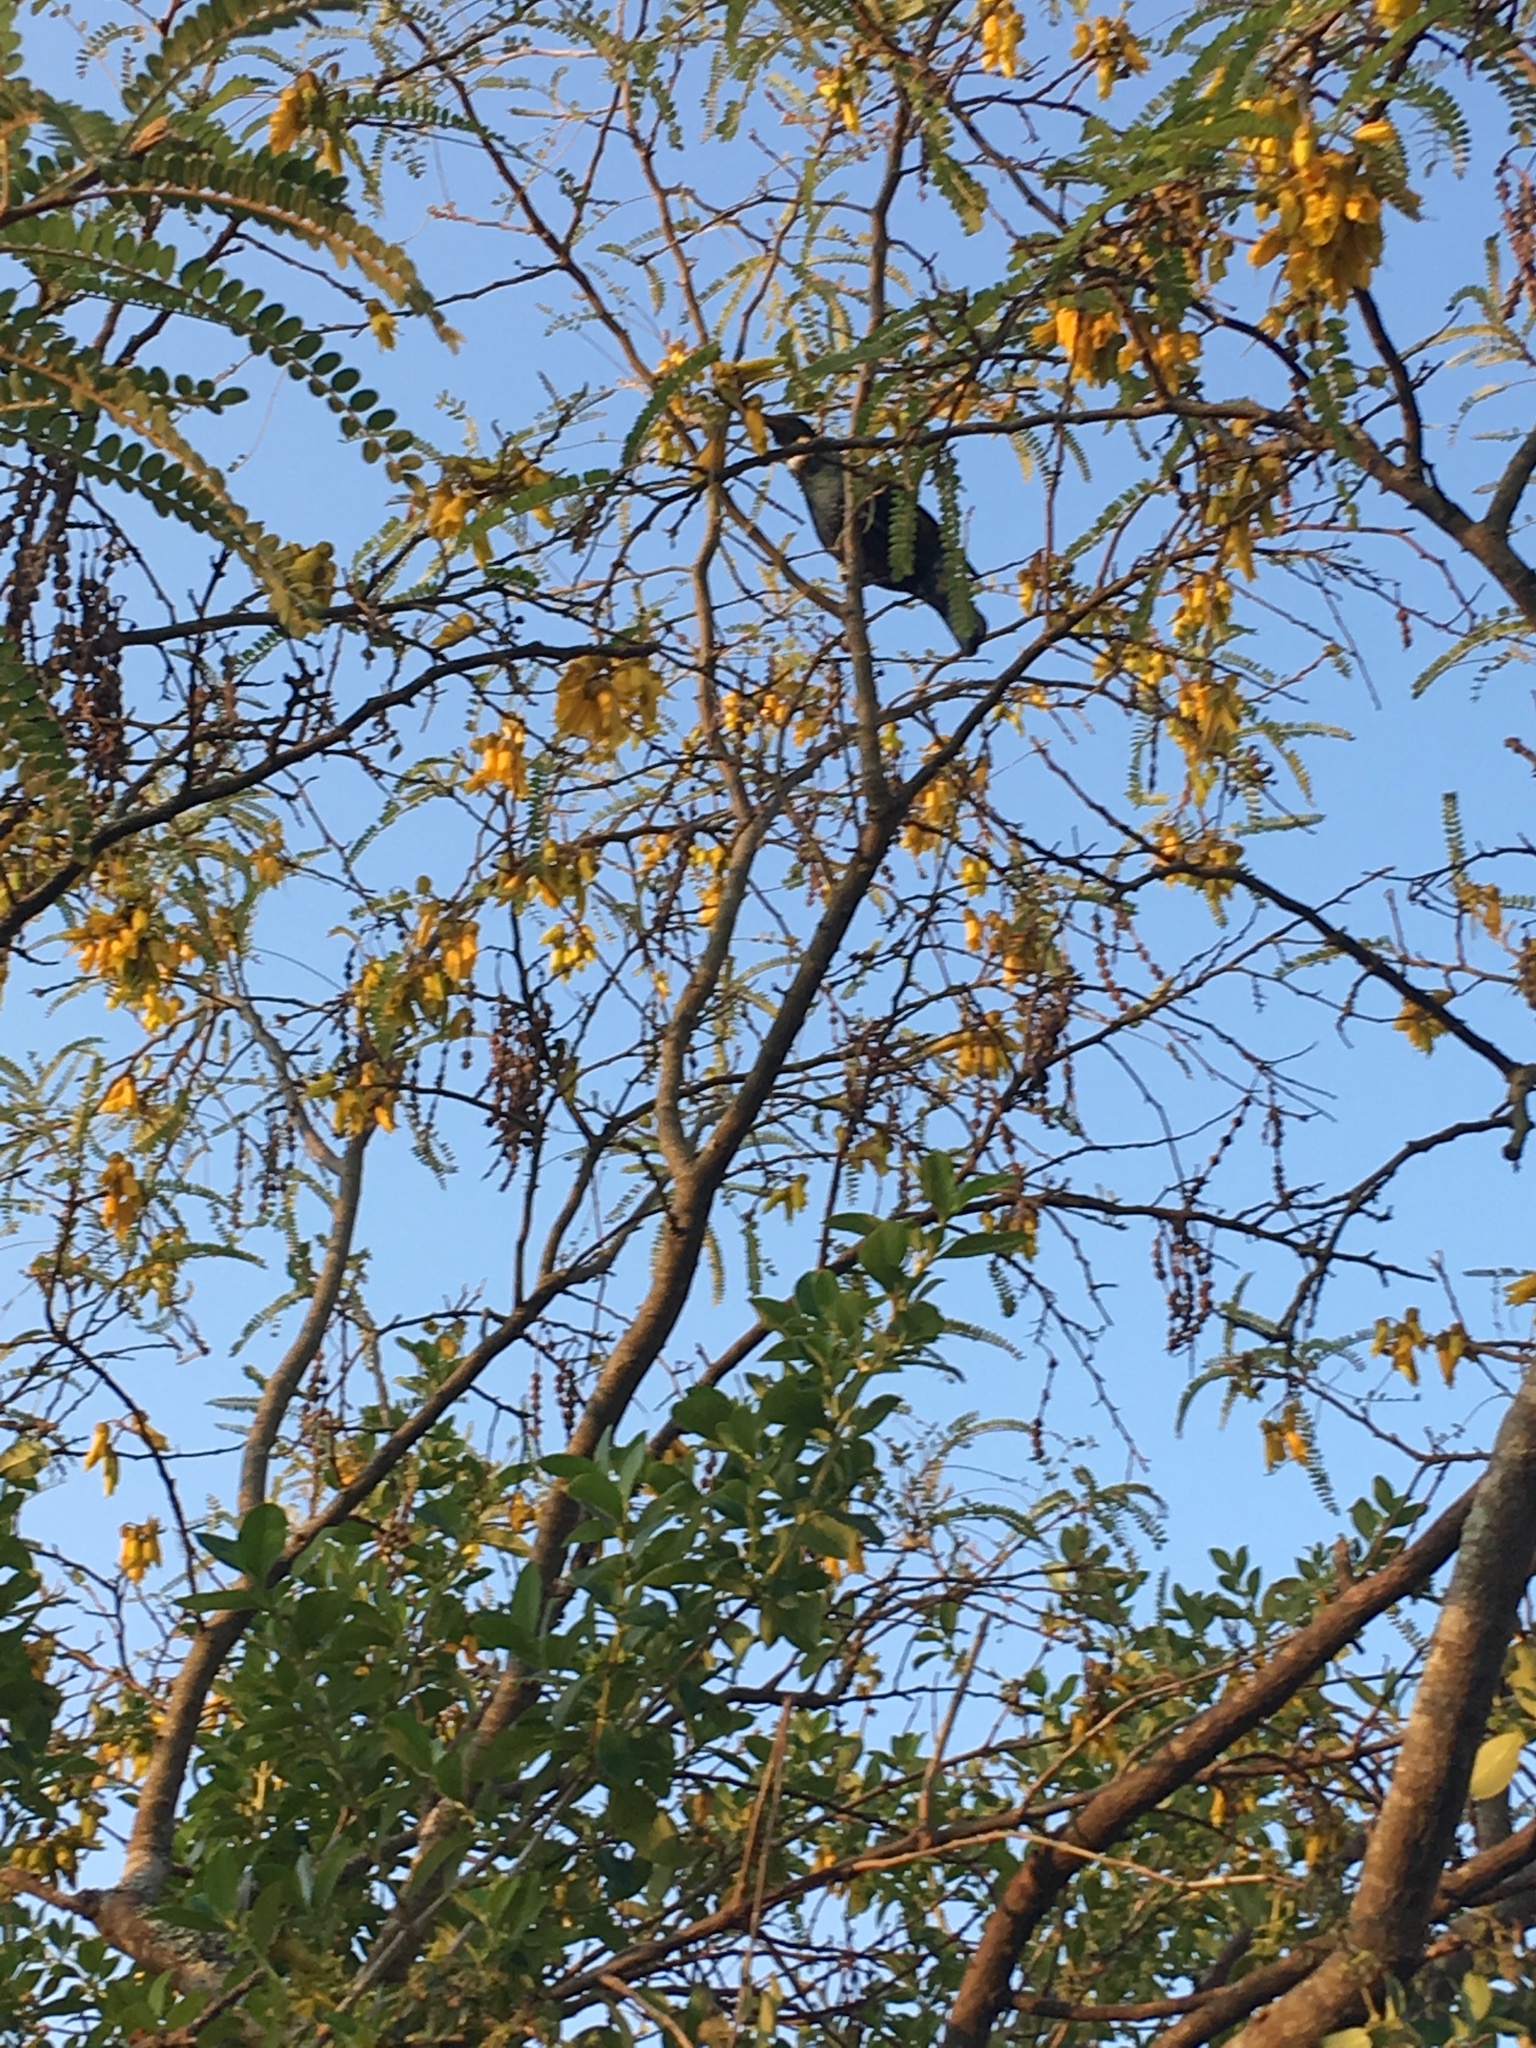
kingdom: Animalia
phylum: Chordata
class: Aves
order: Passeriformes
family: Meliphagidae
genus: Prosthemadera
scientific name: Prosthemadera novaeseelandiae
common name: Tui
